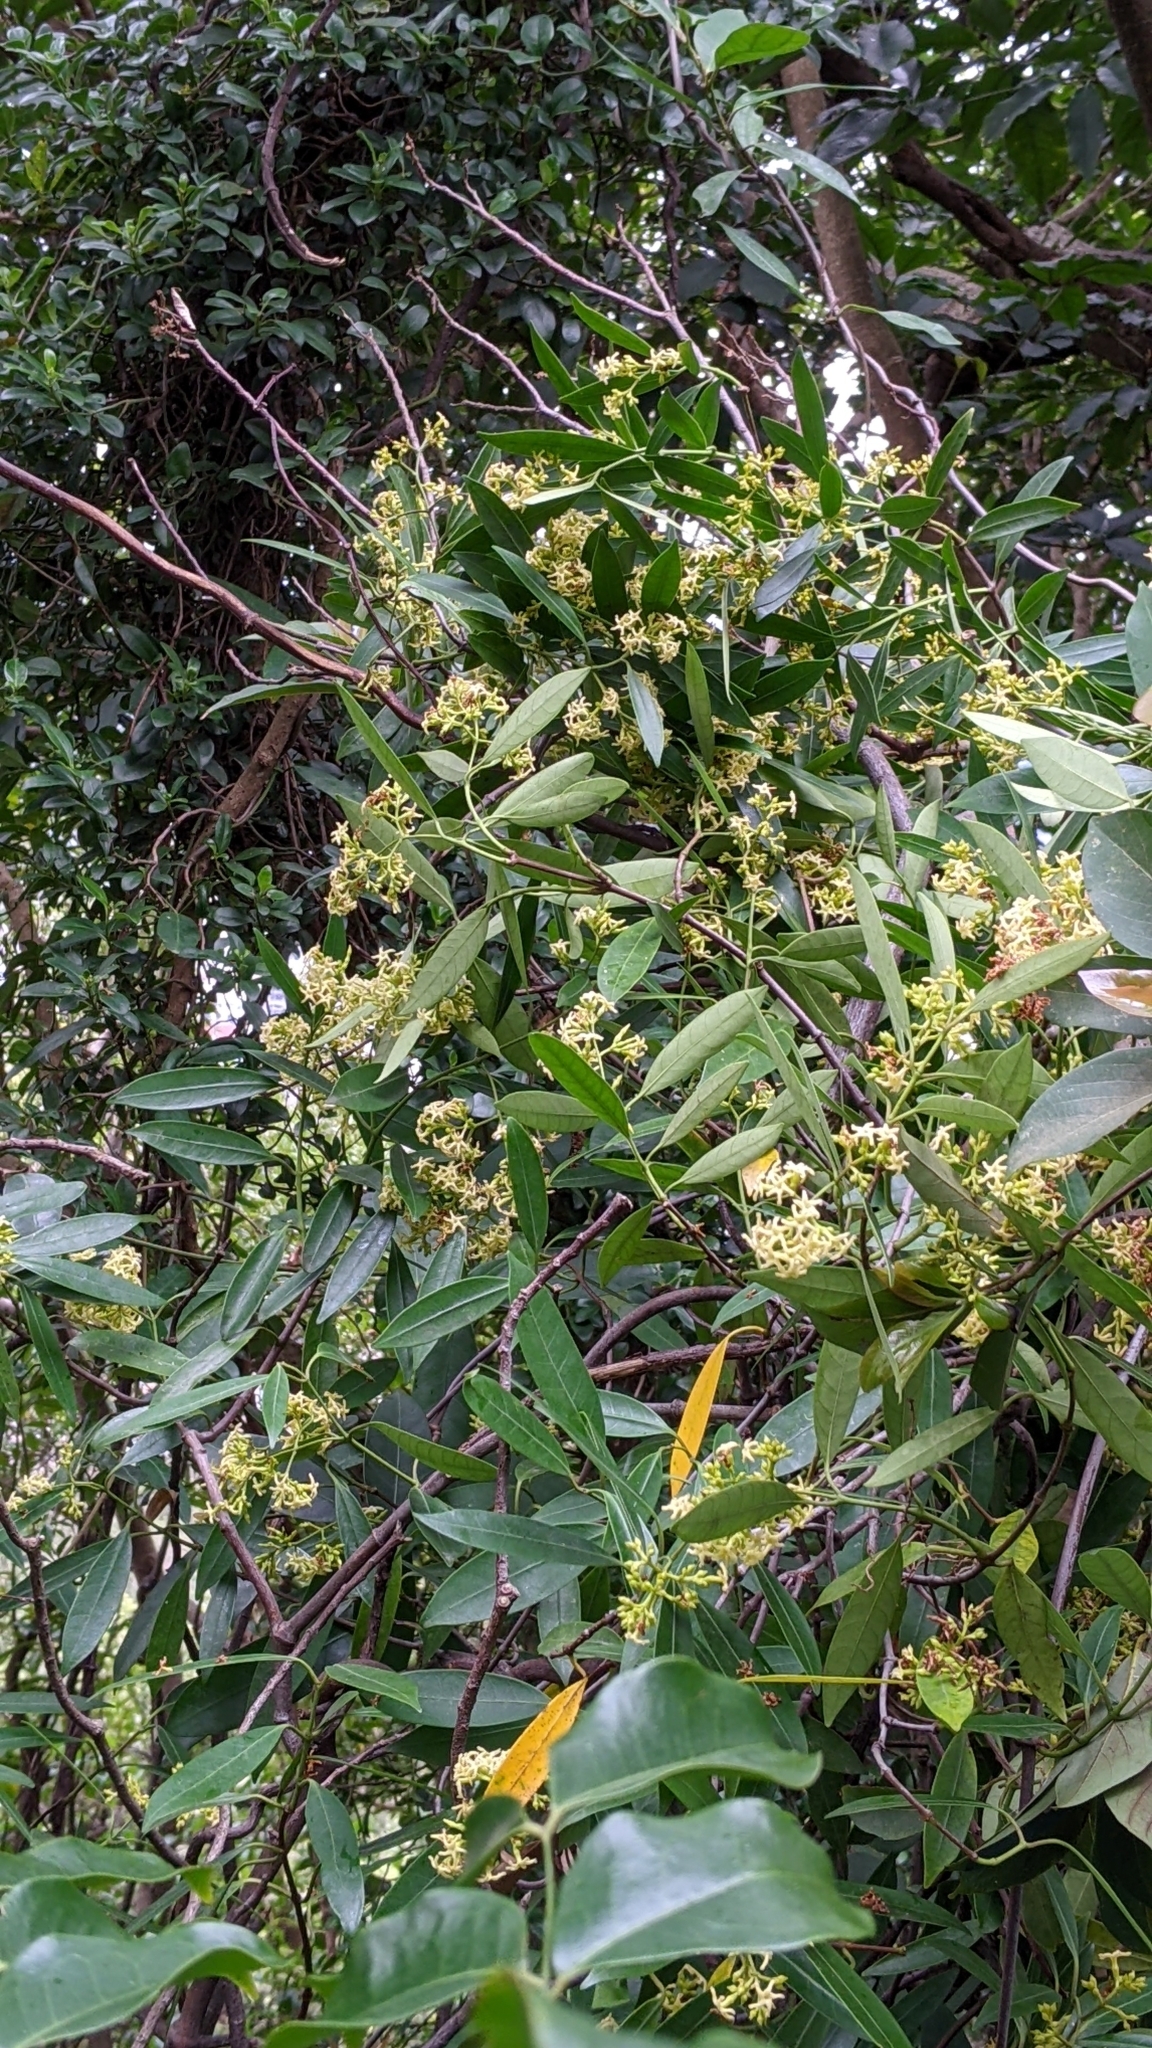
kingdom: Plantae
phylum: Tracheophyta
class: Magnoliopsida
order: Gentianales
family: Apocynaceae
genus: Anodendron
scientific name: Anodendron affine
